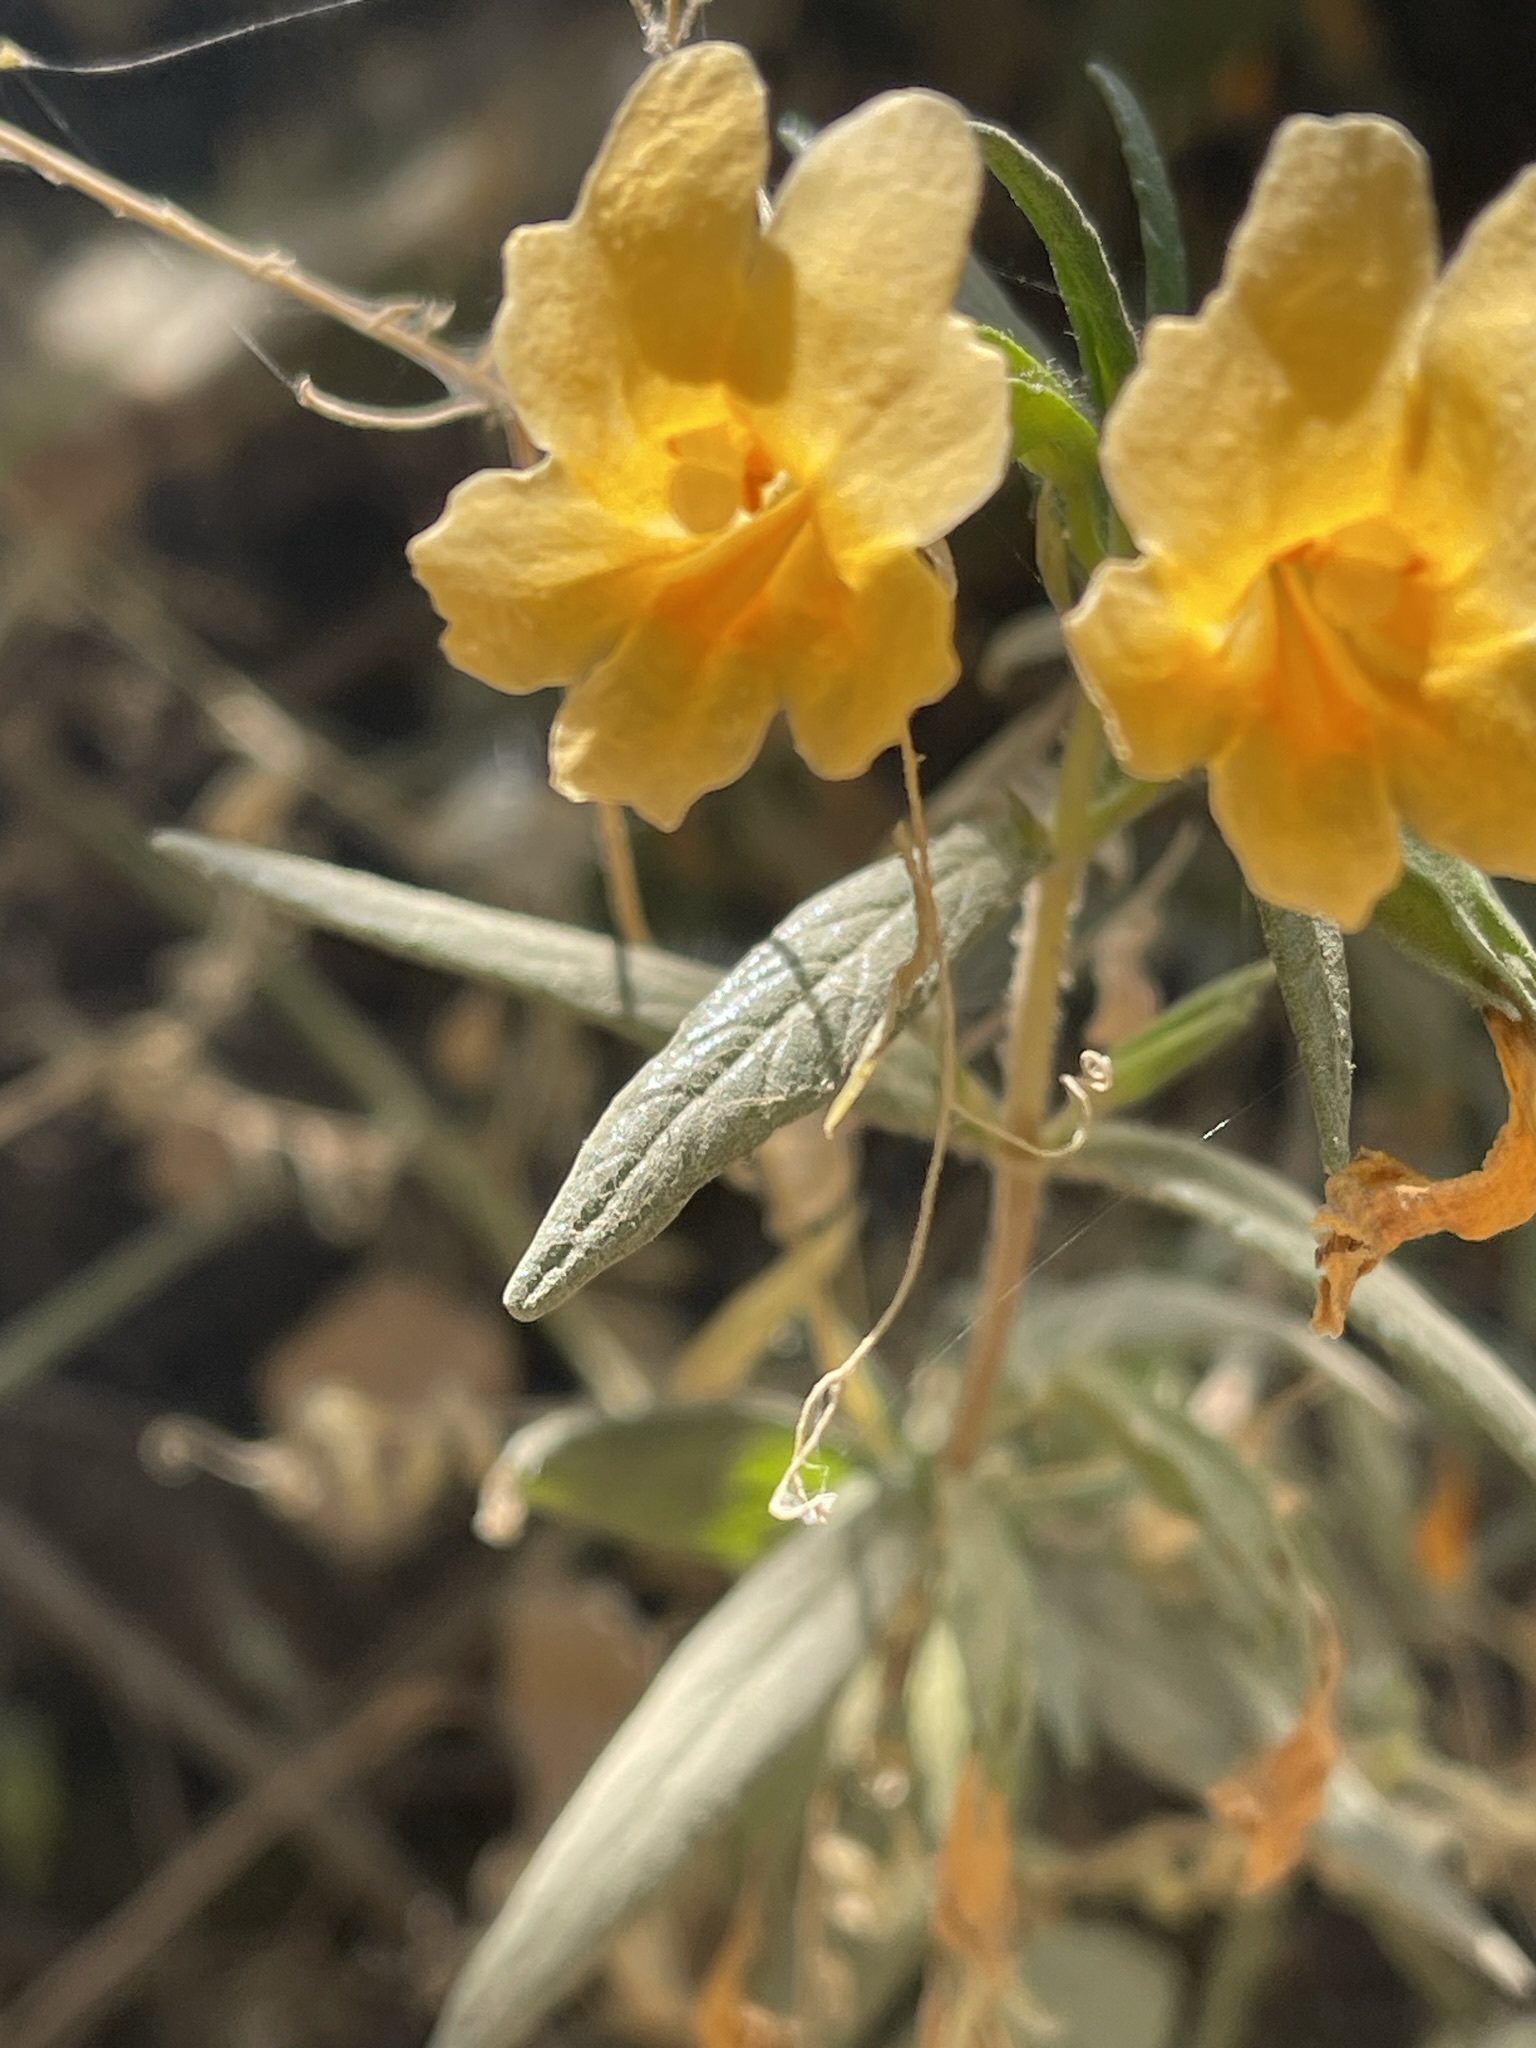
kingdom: Plantae
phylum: Tracheophyta
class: Magnoliopsida
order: Lamiales
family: Phrymaceae
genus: Diplacus
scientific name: Diplacus aurantiacus
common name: Bush monkey-flower
